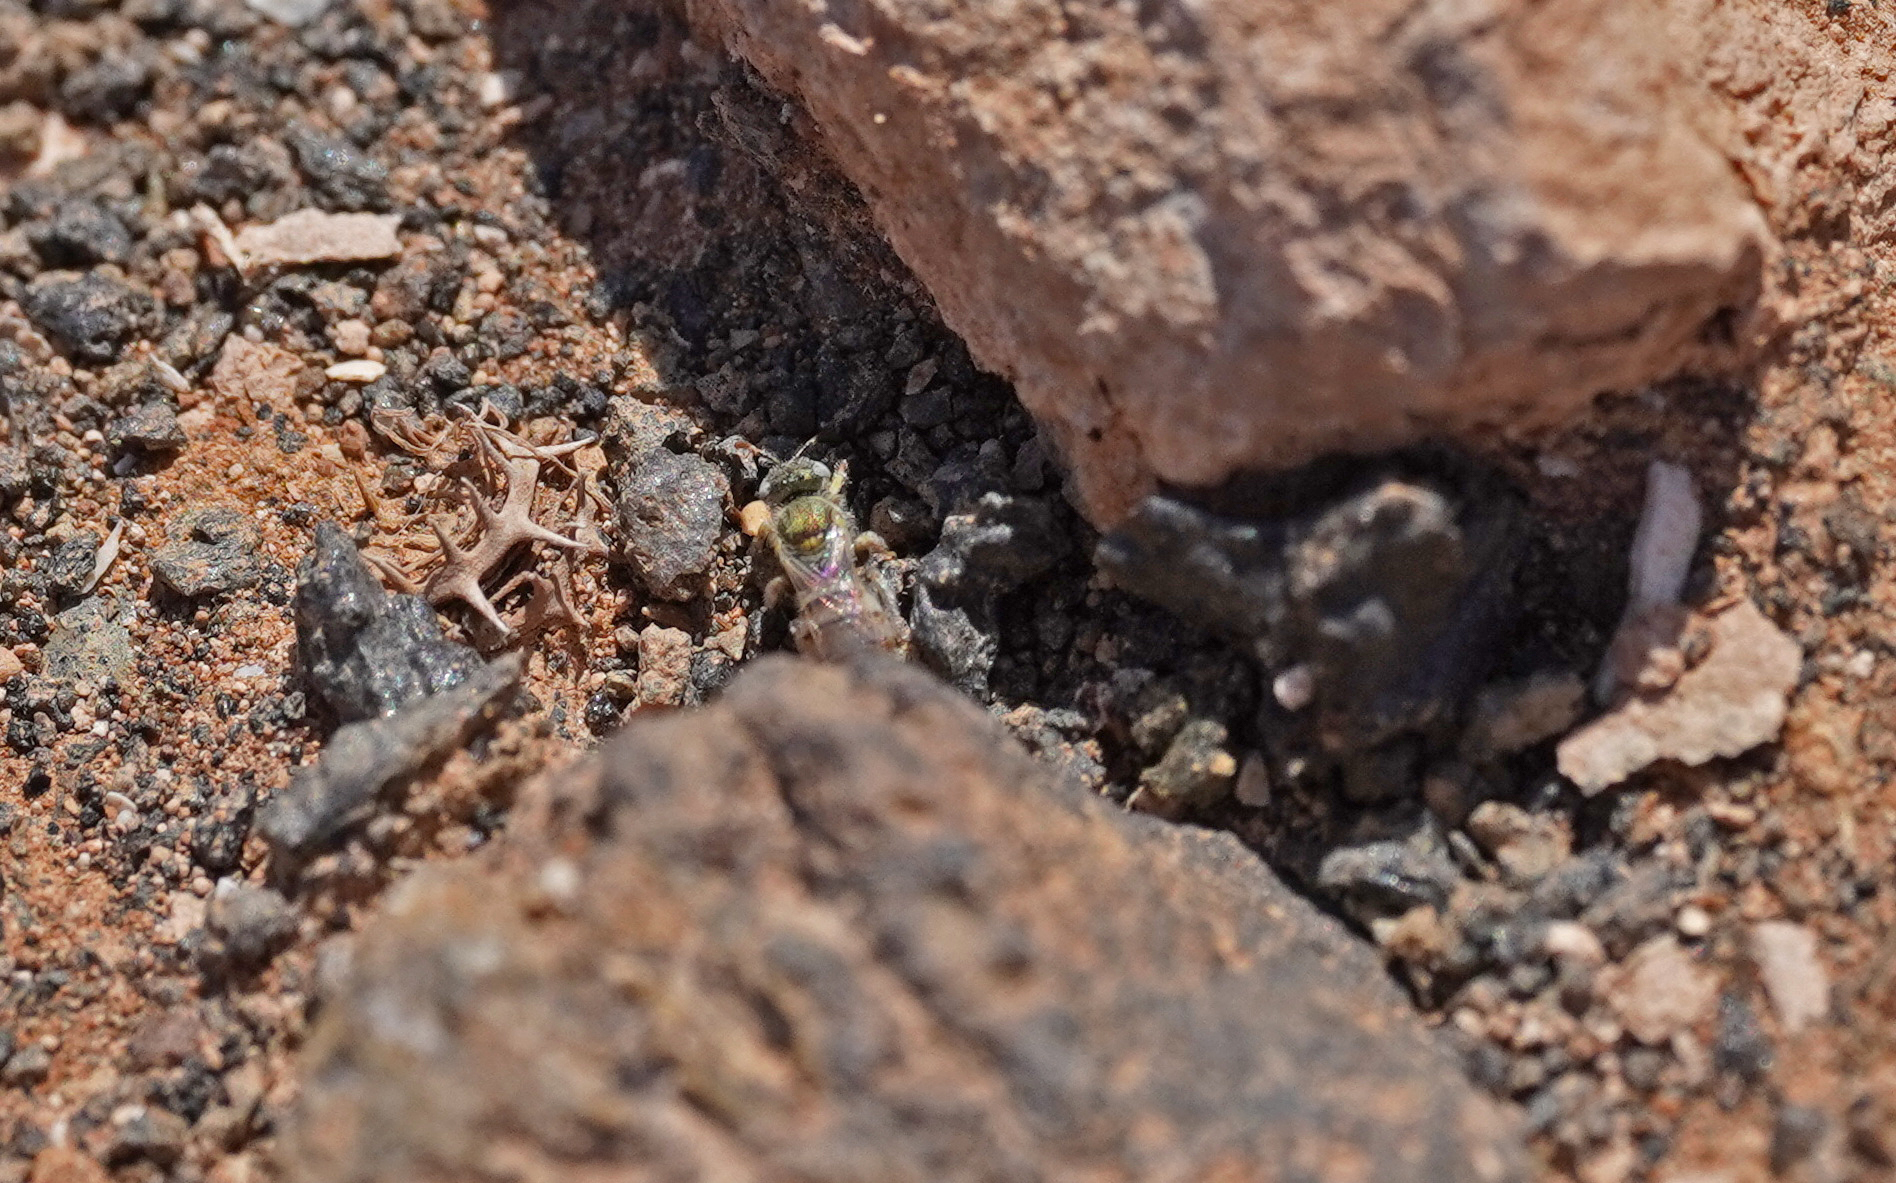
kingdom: Animalia
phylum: Arthropoda
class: Insecta
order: Hymenoptera
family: Halictidae
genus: Nomioides
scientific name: Nomioides deceptor
